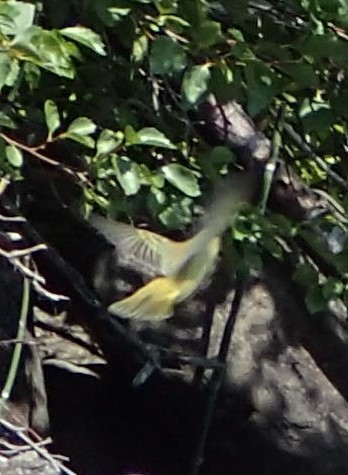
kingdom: Animalia
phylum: Chordata
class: Aves
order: Passeriformes
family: Parulidae
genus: Setophaga
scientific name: Setophaga petechia
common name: Yellow warbler
